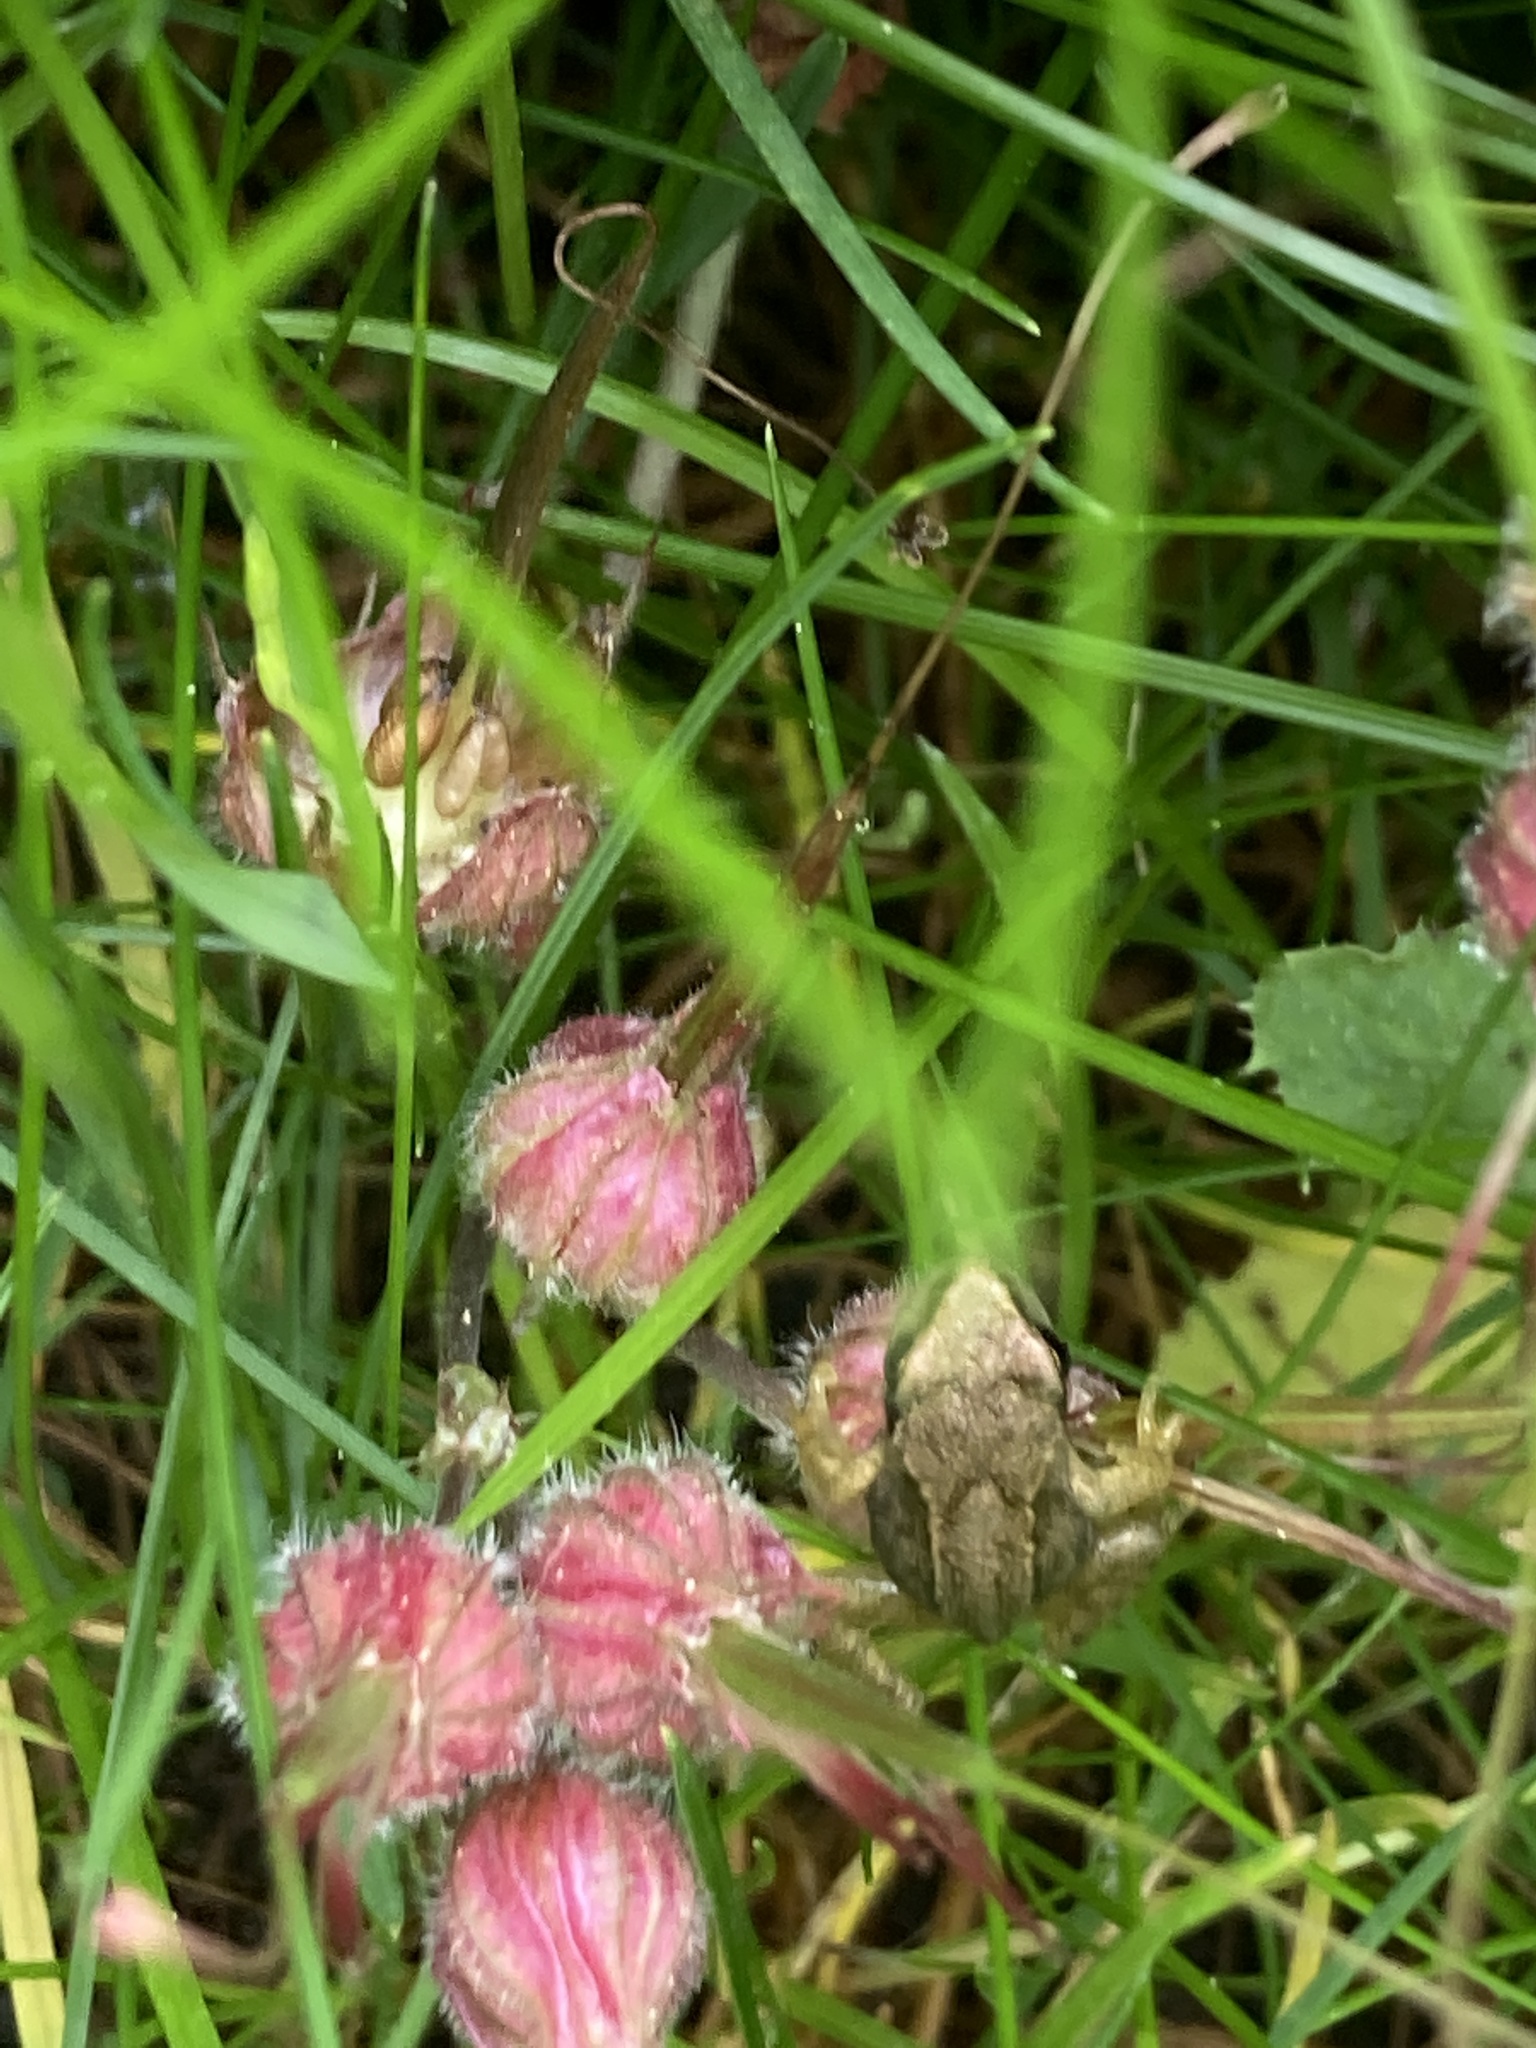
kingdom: Animalia
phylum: Chordata
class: Amphibia
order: Anura
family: Ranidae
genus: Rana
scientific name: Rana temporaria
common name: Common frog
